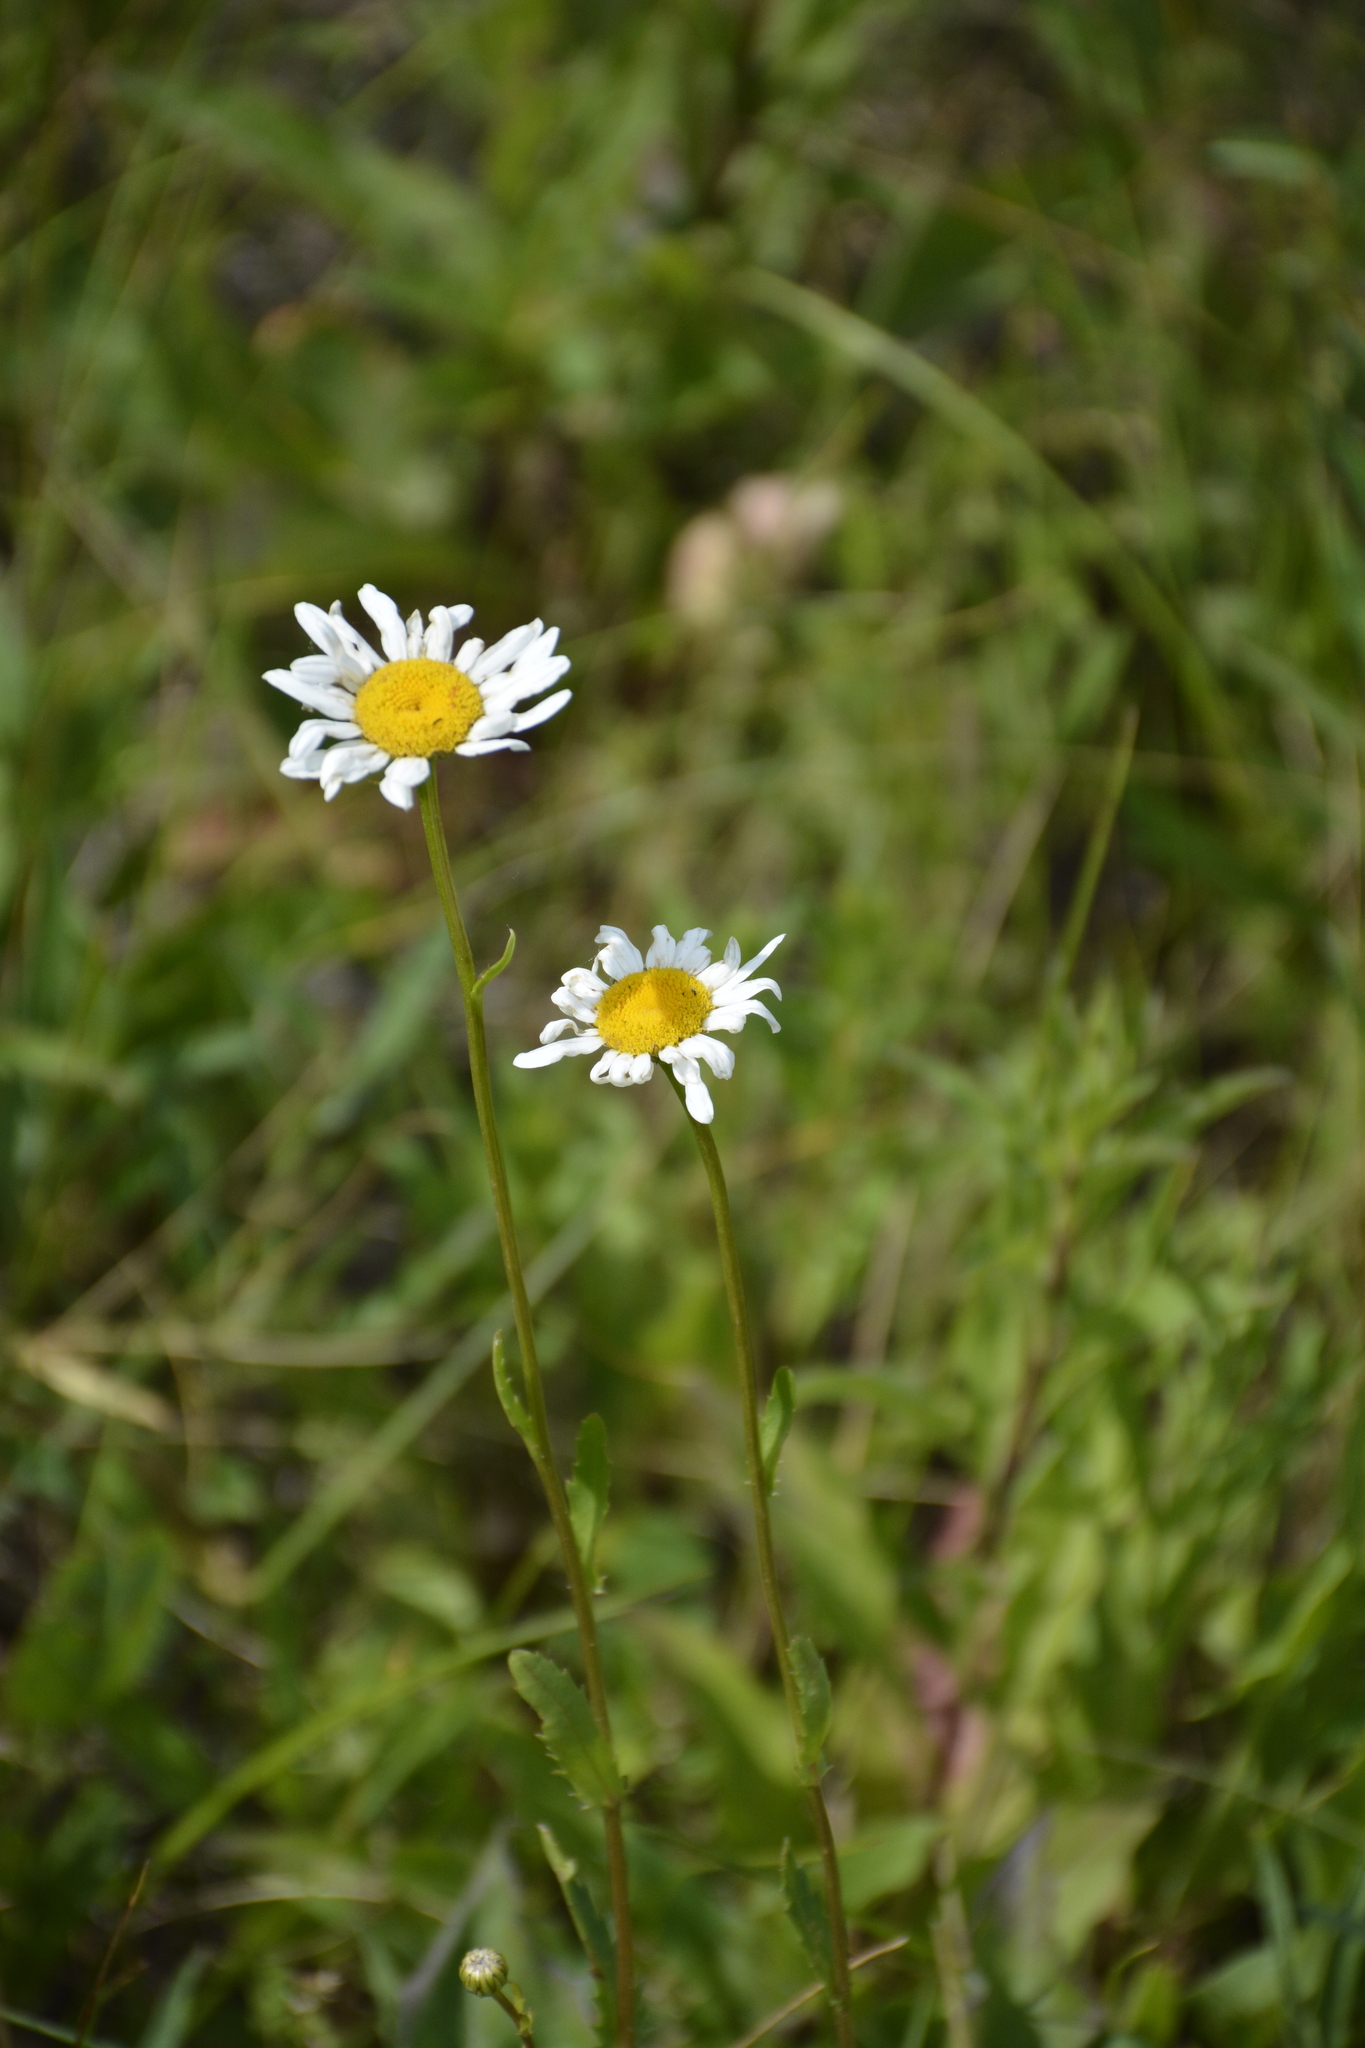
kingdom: Plantae
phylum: Tracheophyta
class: Magnoliopsida
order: Asterales
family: Asteraceae
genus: Leucanthemum
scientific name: Leucanthemum vulgare
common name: Oxeye daisy
